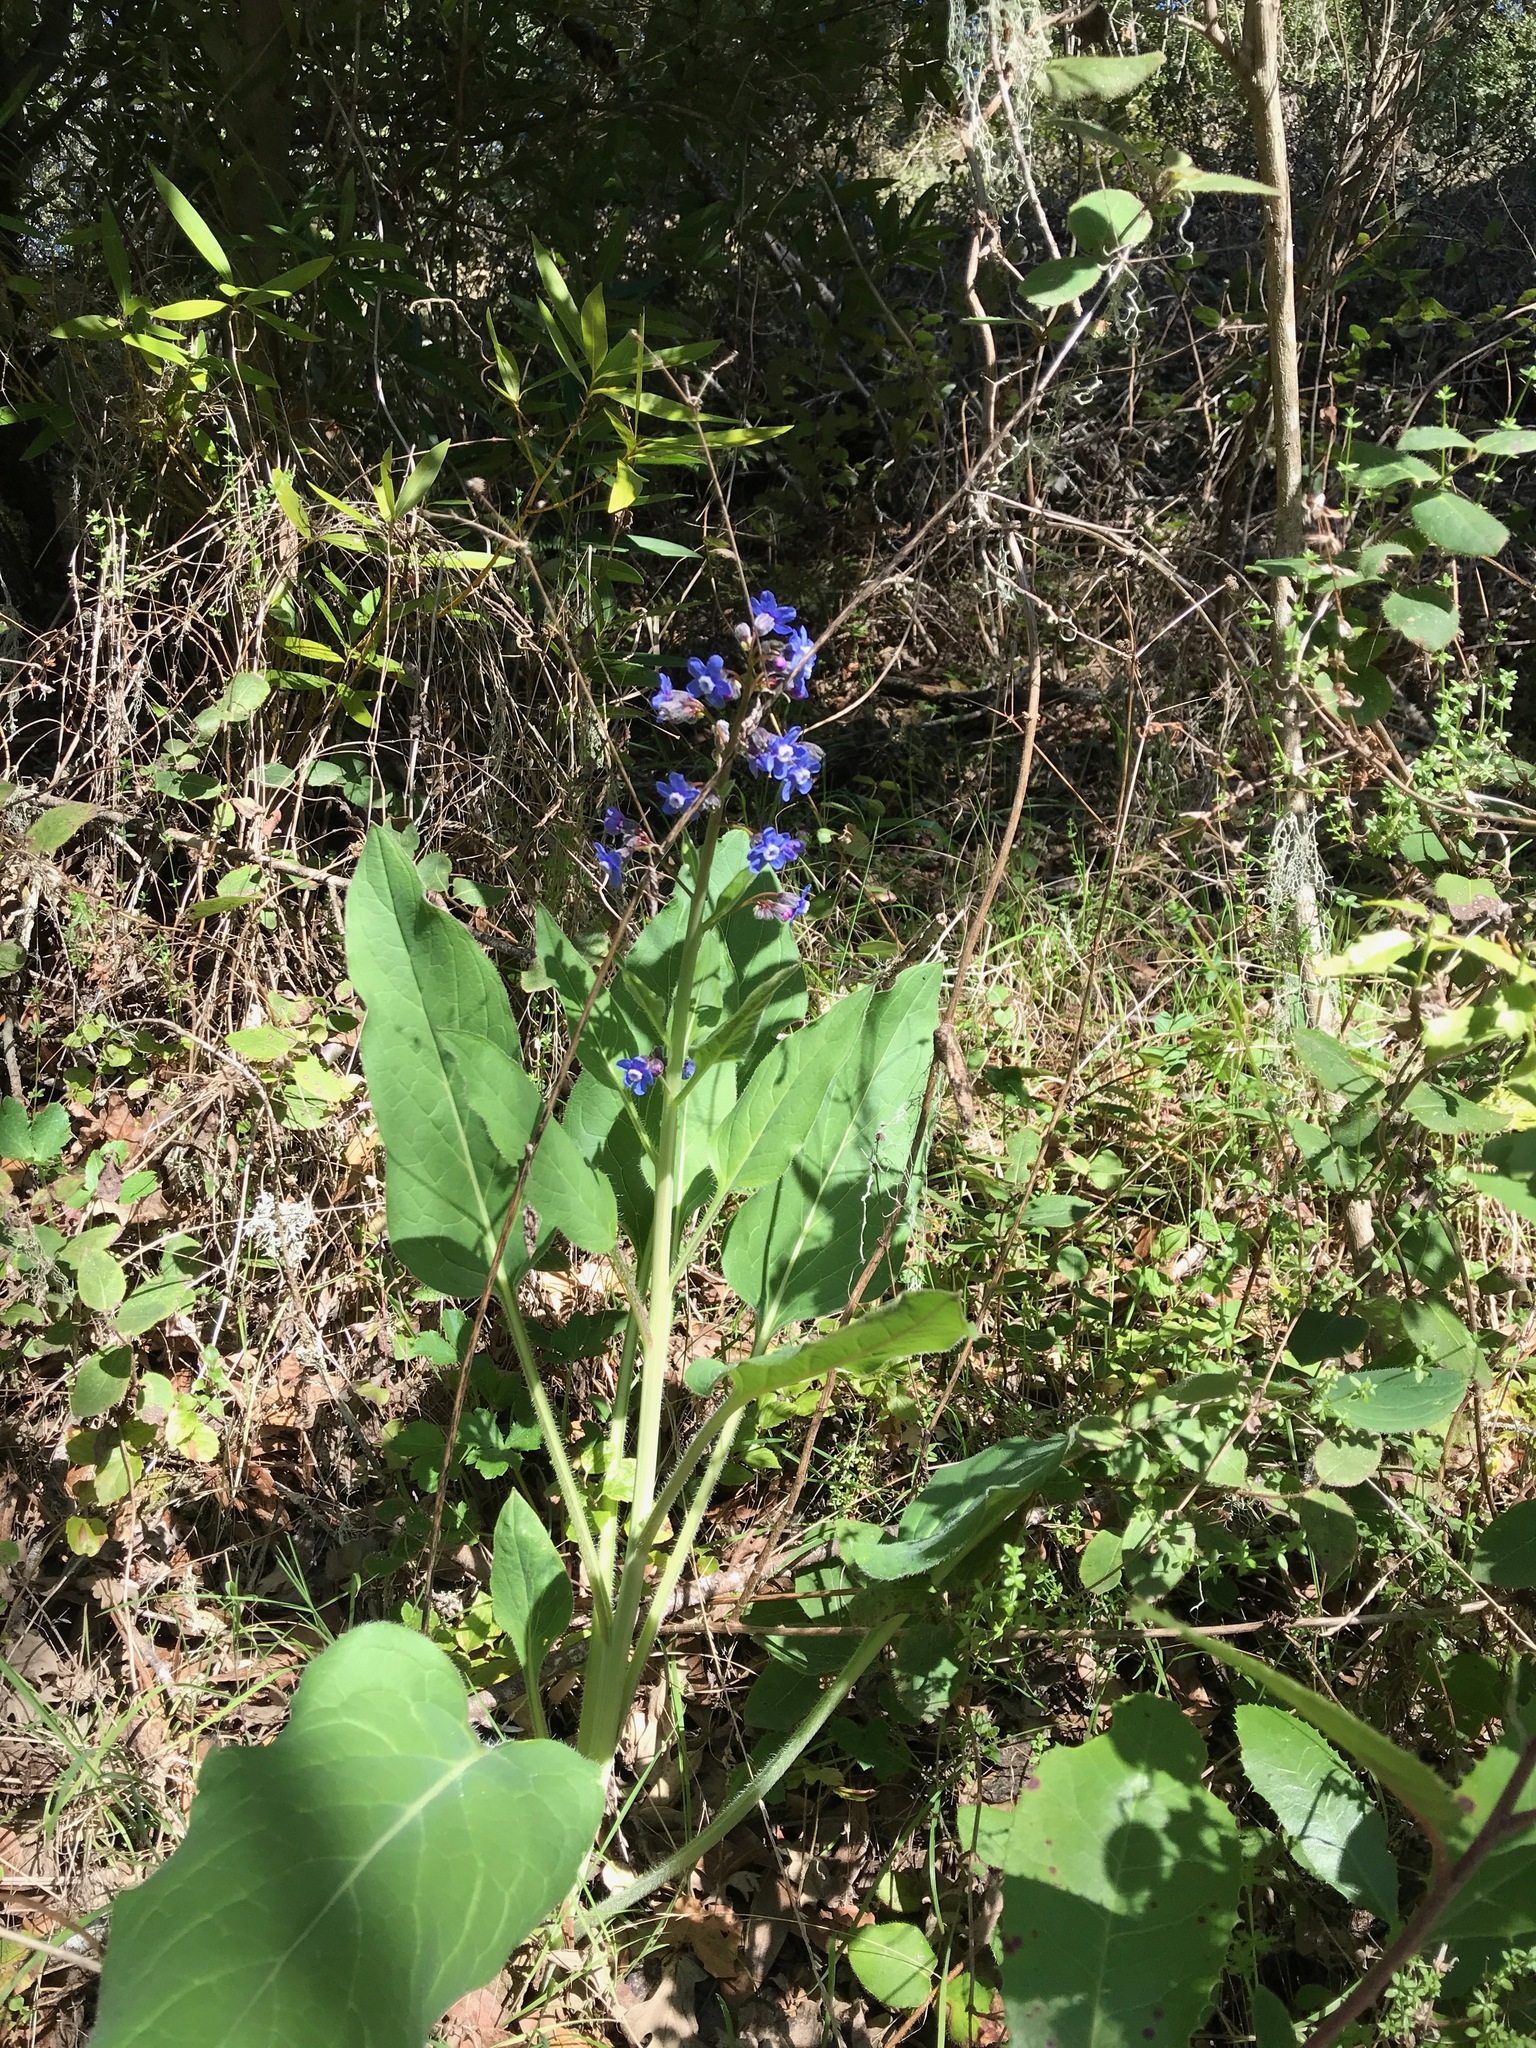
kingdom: Plantae
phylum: Tracheophyta
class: Magnoliopsida
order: Boraginales
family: Boraginaceae
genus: Adelinia
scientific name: Adelinia grande
